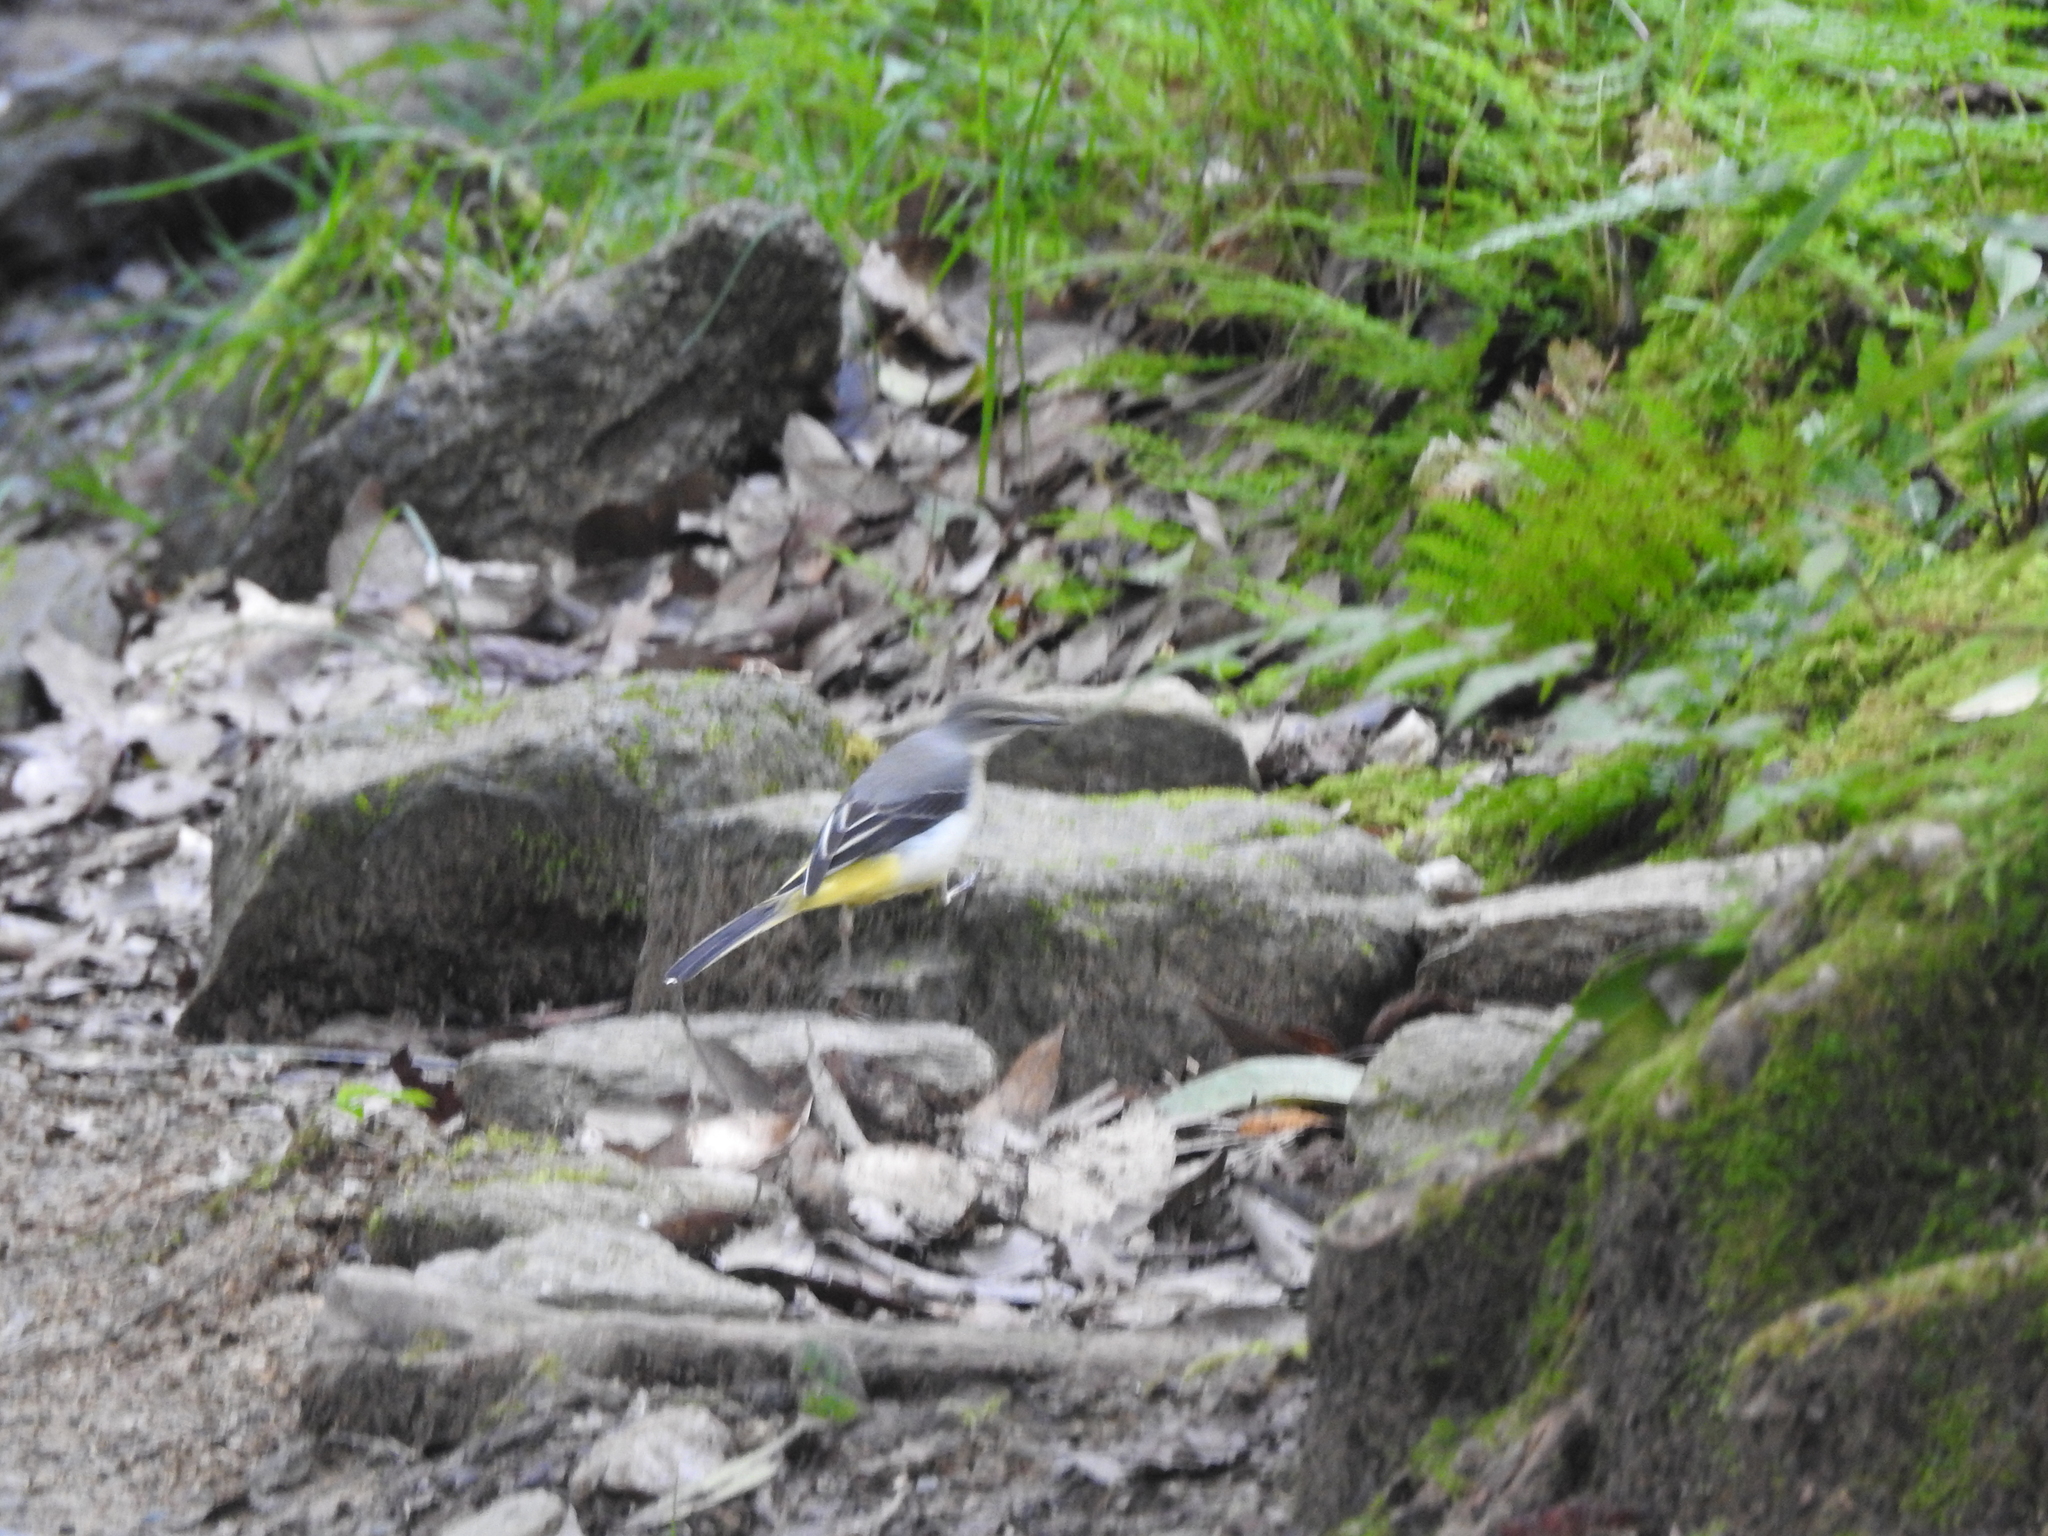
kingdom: Animalia
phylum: Chordata
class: Aves
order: Passeriformes
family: Motacillidae
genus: Motacilla
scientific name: Motacilla cinerea
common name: Grey wagtail
